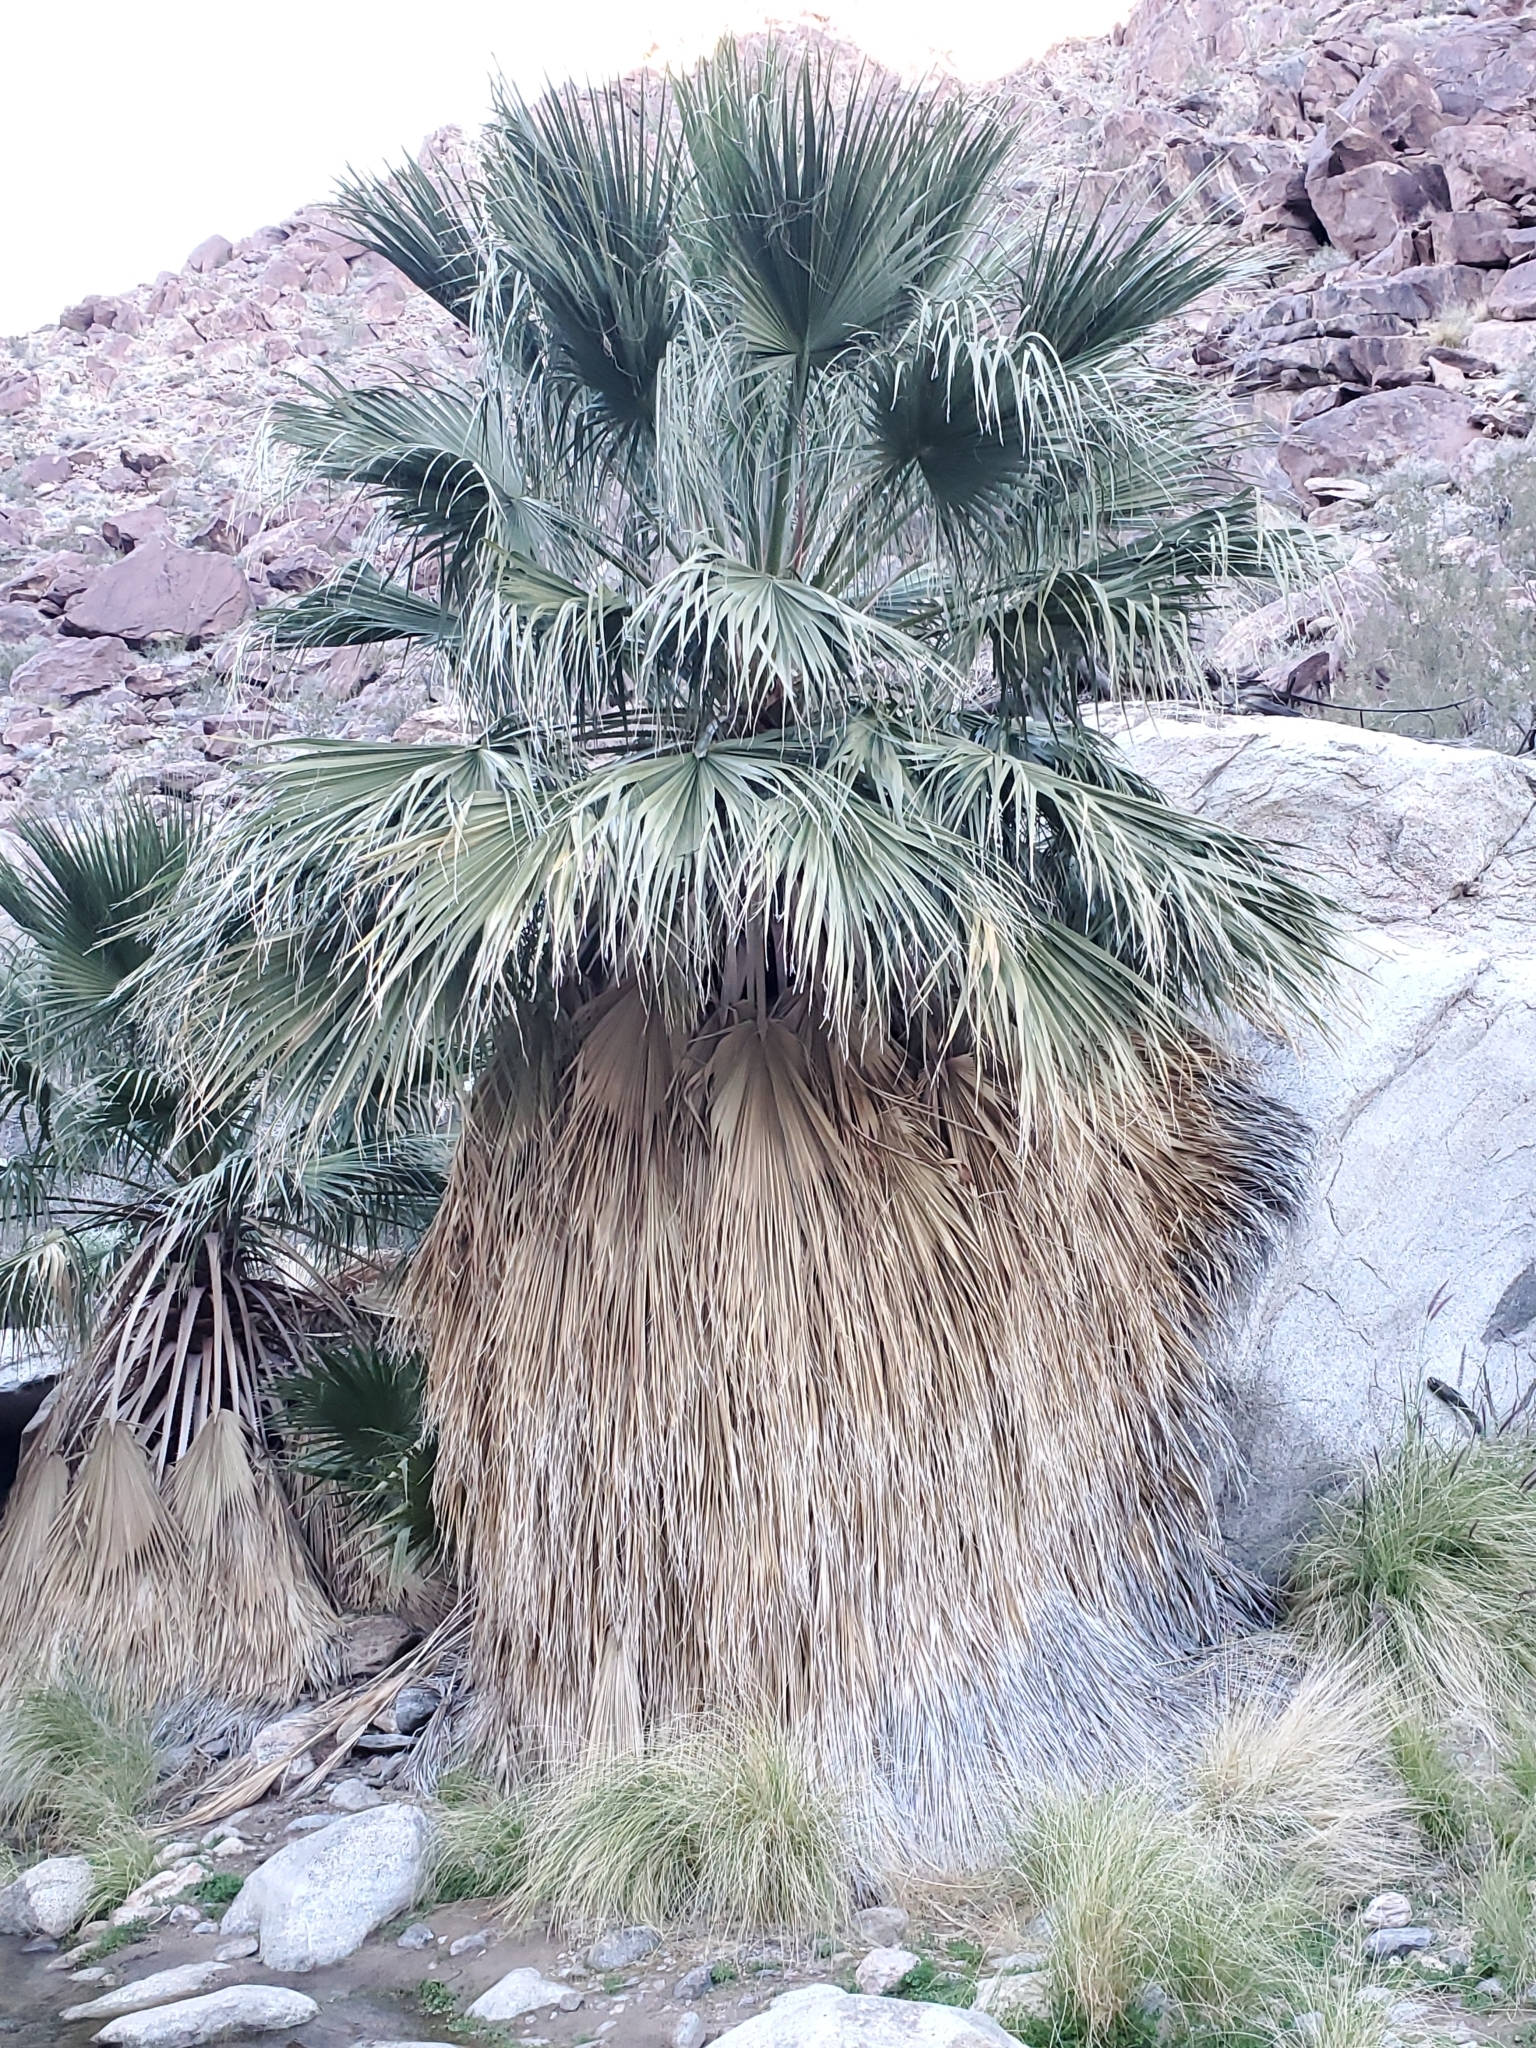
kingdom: Plantae
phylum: Tracheophyta
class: Liliopsida
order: Arecales
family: Arecaceae
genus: Washingtonia
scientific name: Washingtonia filifera
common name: California fan palm
